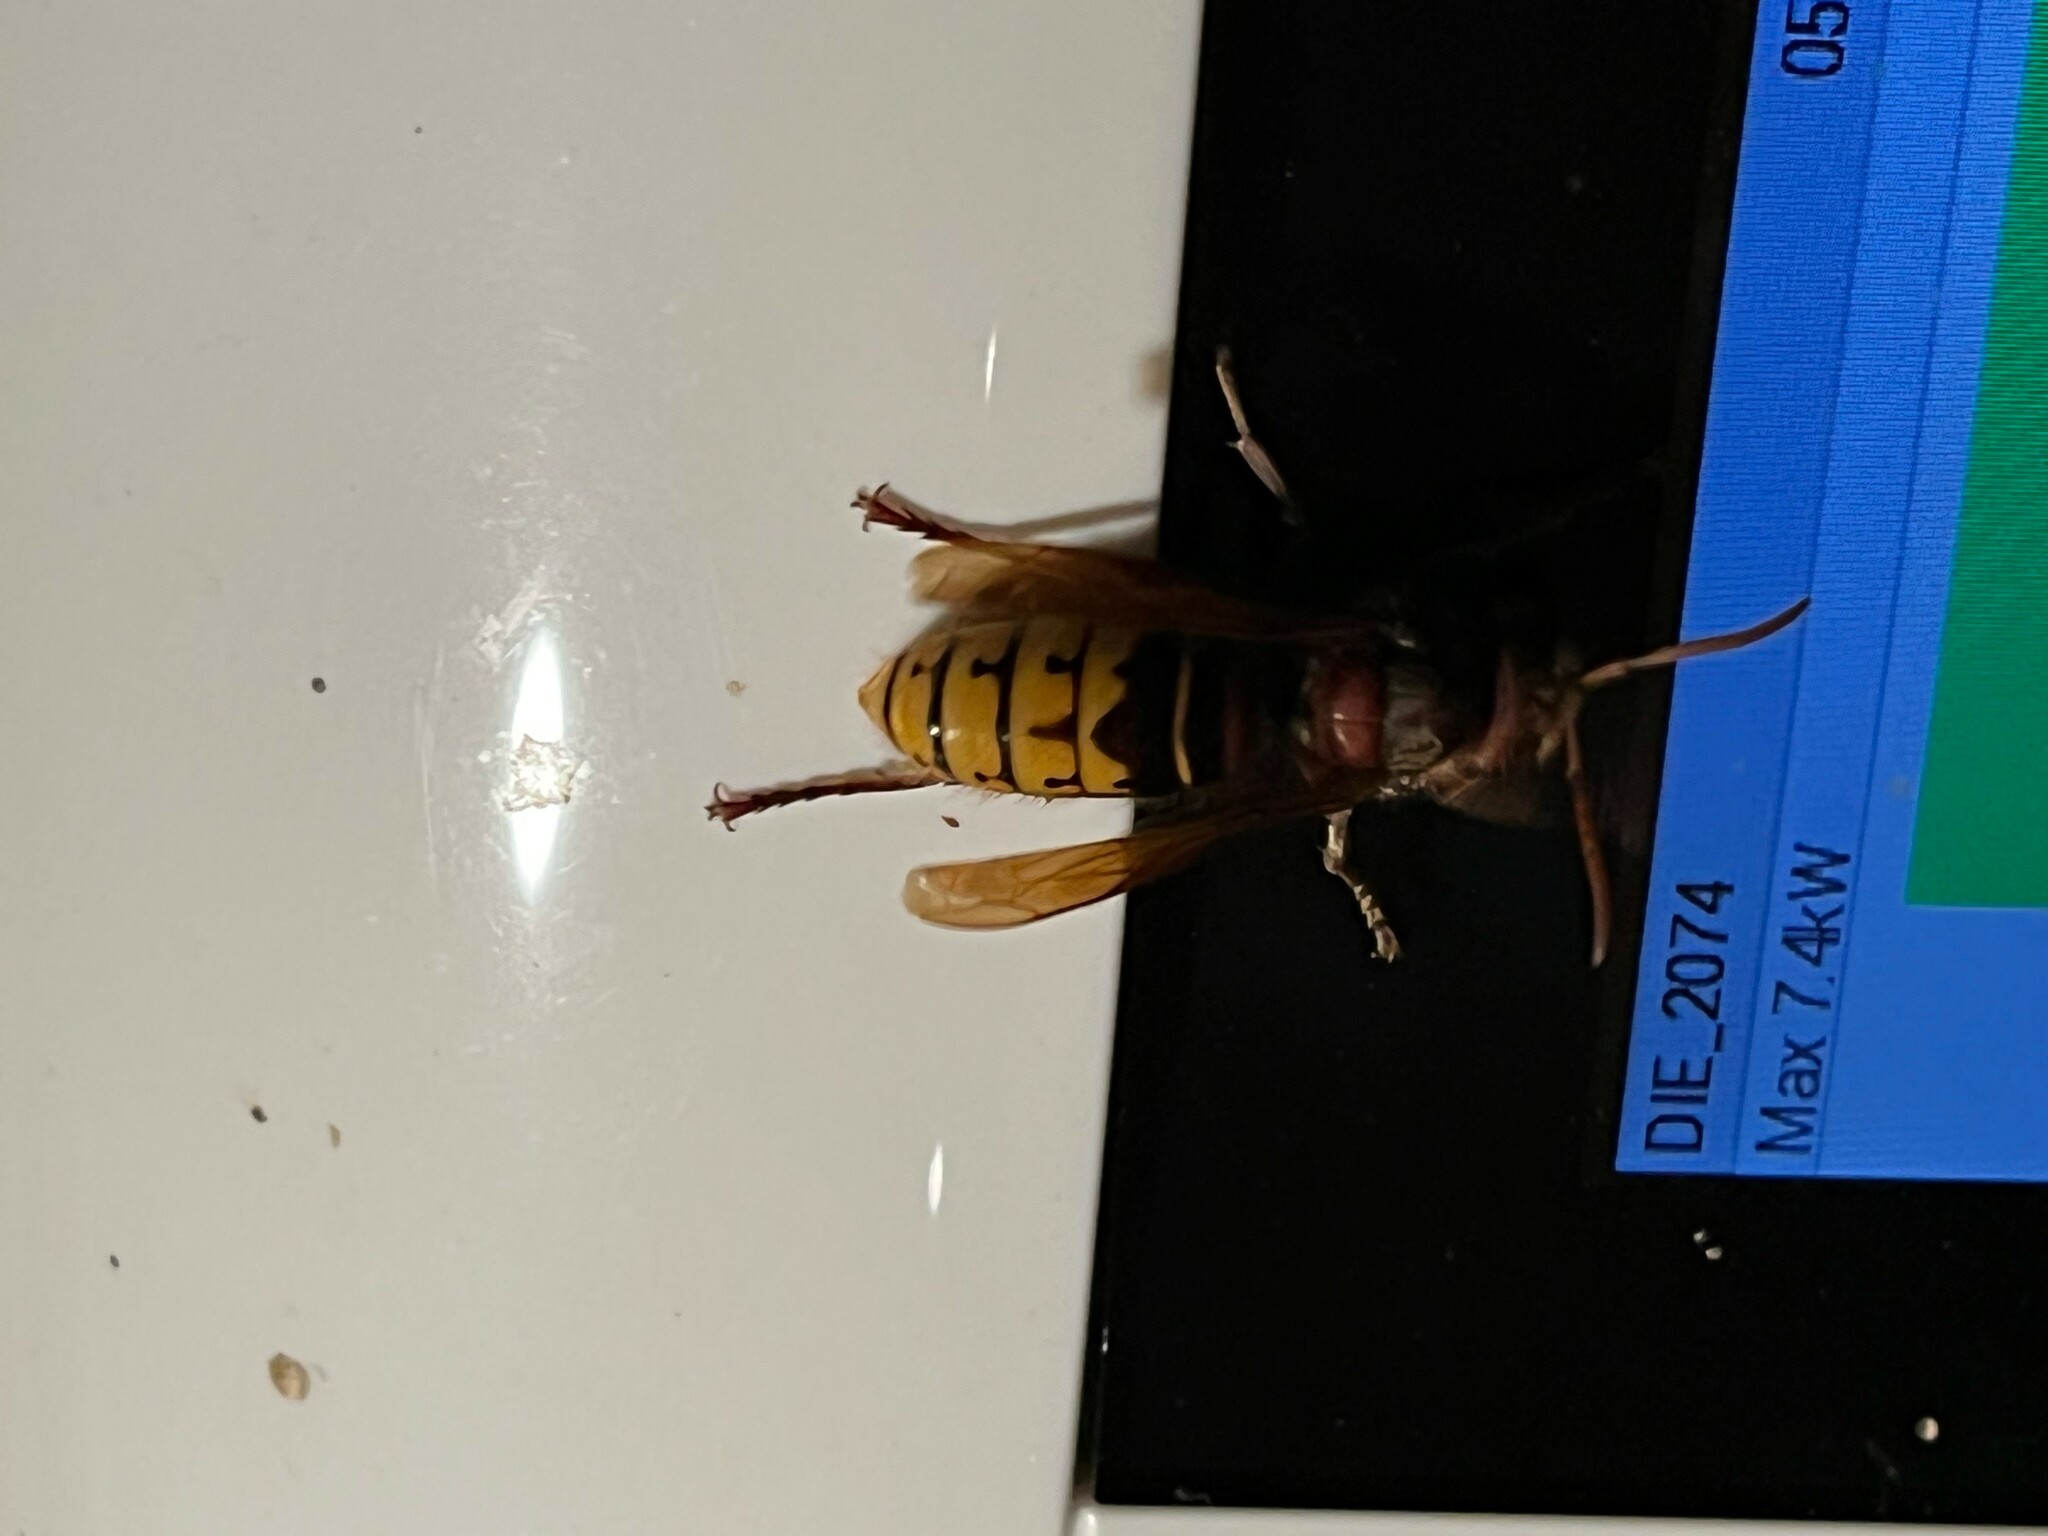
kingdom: Animalia
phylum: Arthropoda
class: Insecta
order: Hymenoptera
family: Vespidae
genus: Vespa
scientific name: Vespa crabro
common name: Hornet
